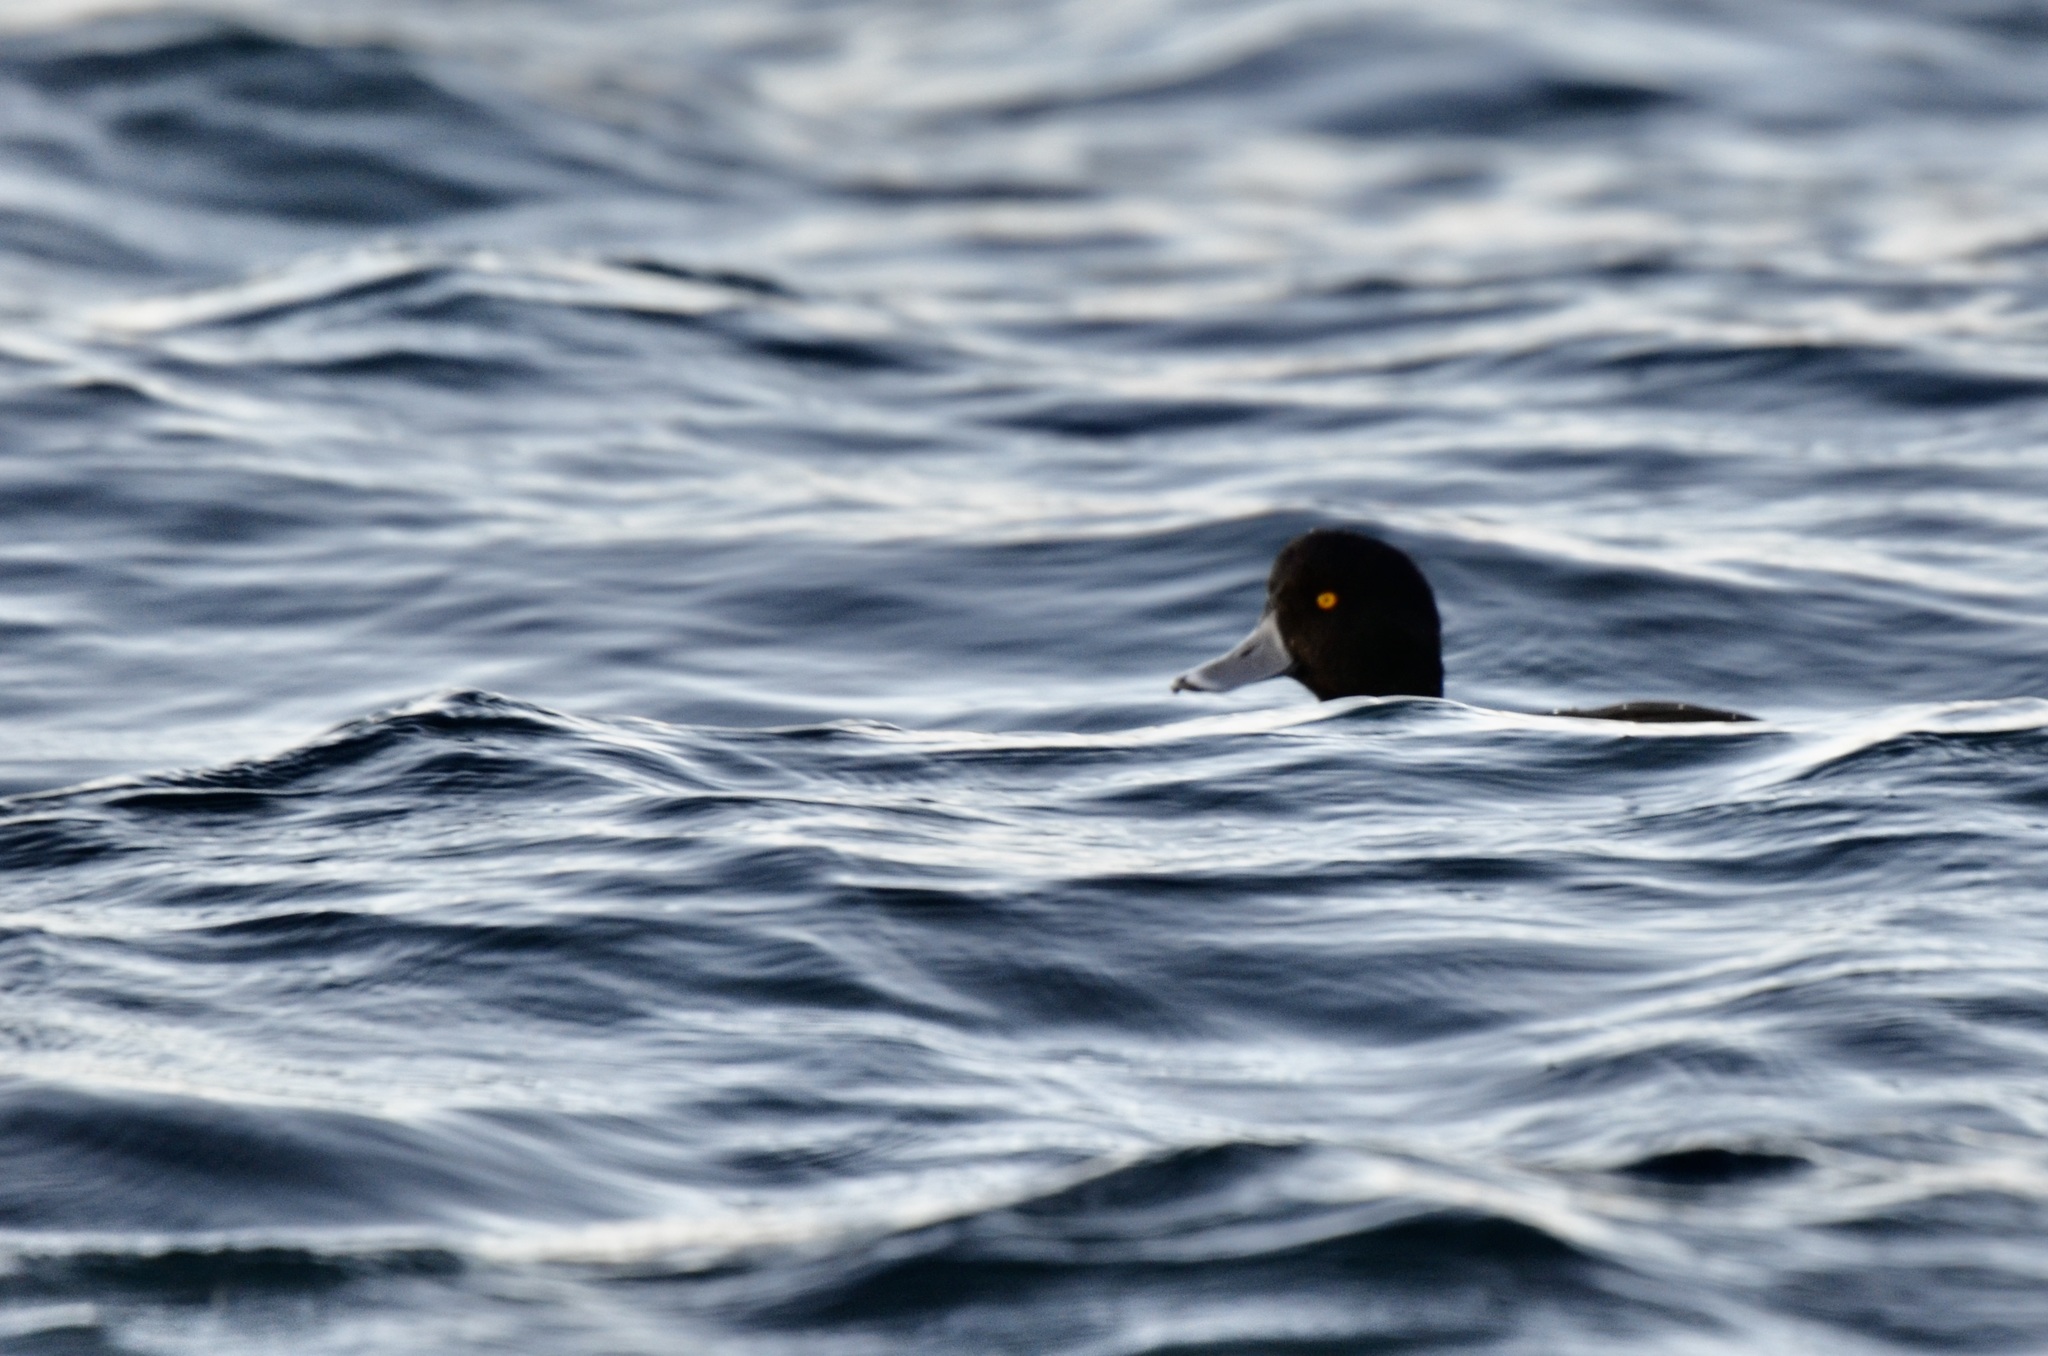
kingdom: Animalia
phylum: Chordata
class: Aves
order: Anseriformes
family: Anatidae
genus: Aythya
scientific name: Aythya novaeseelandiae
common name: New zealand scaup
